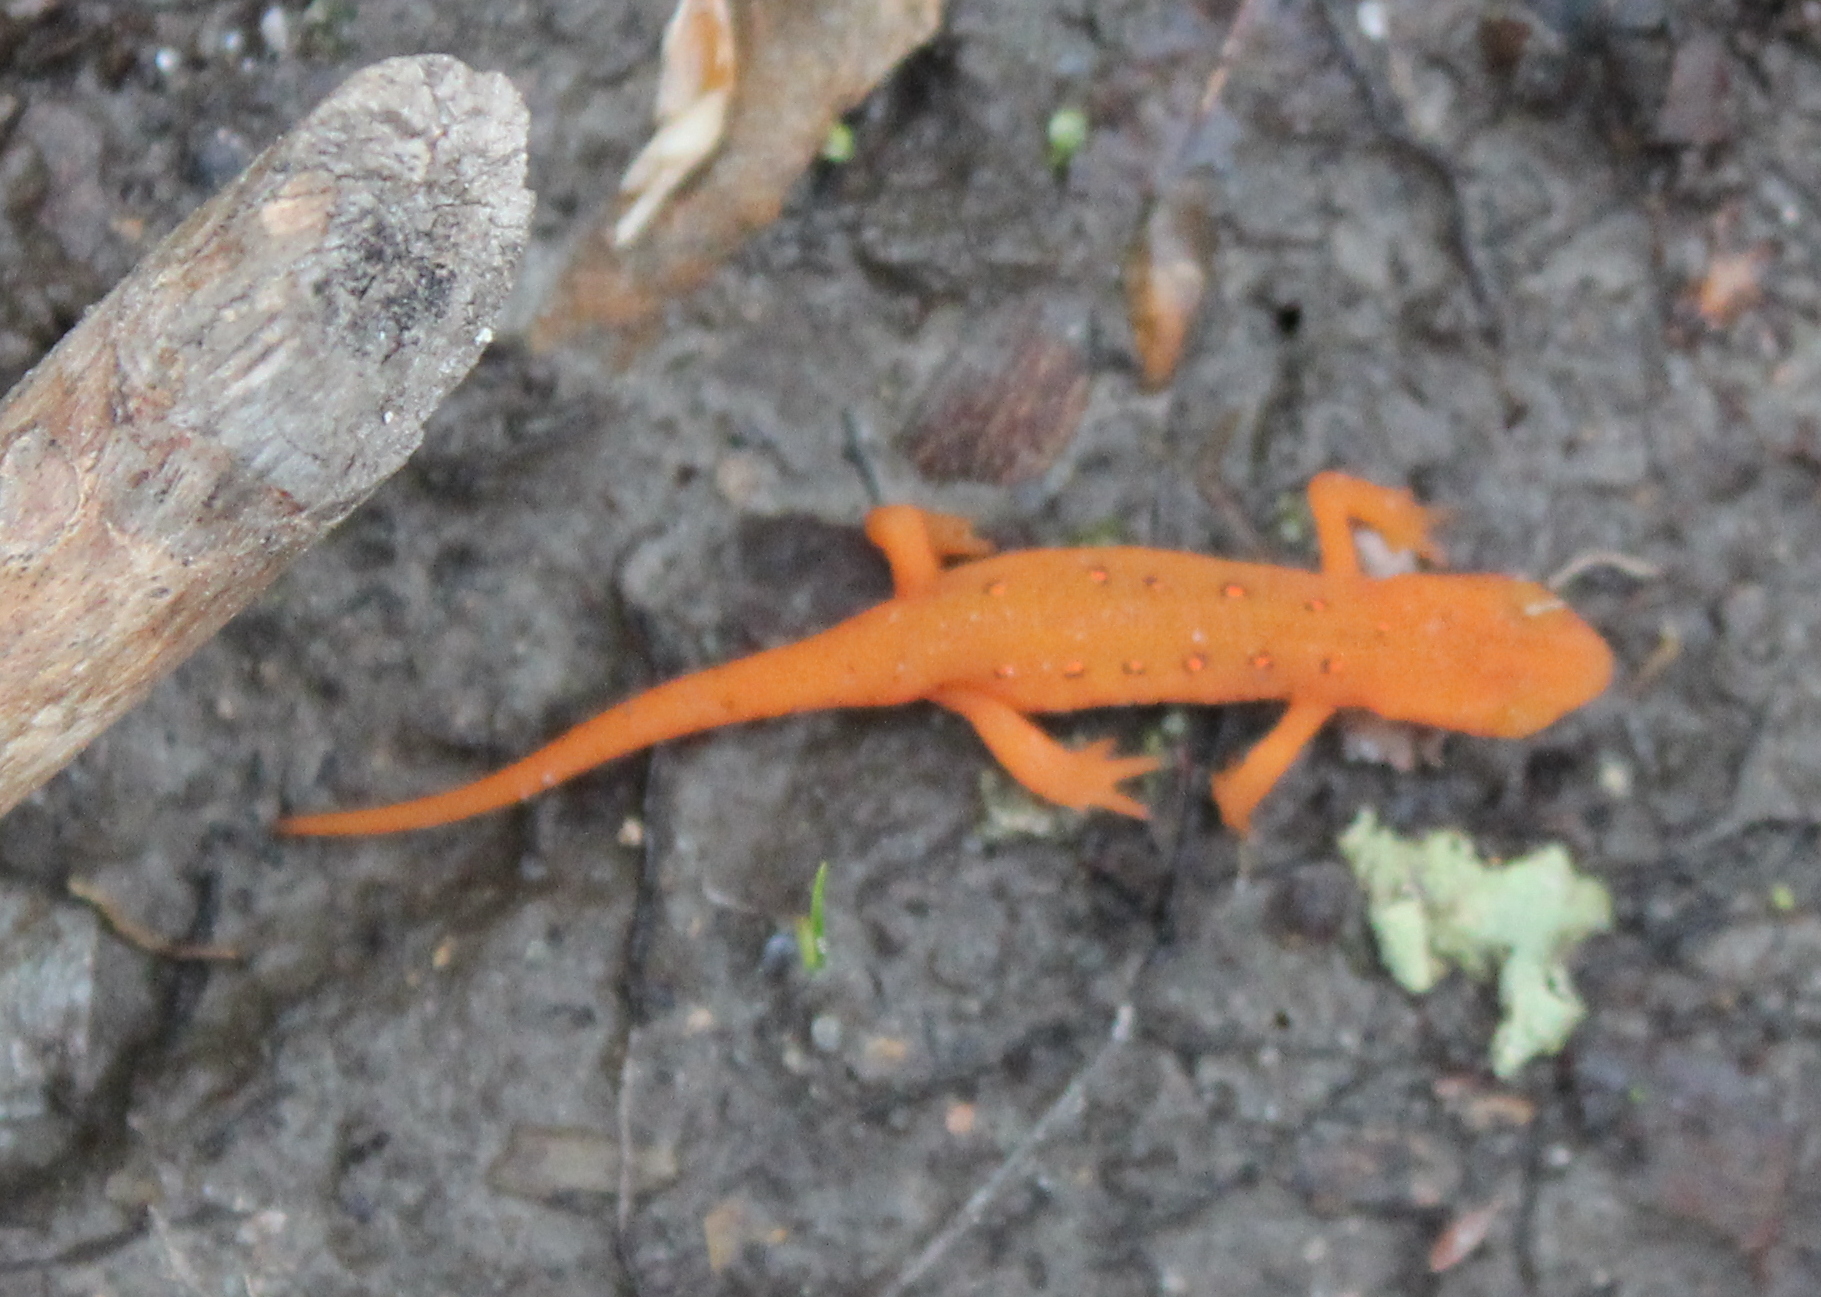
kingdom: Animalia
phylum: Chordata
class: Amphibia
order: Caudata
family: Salamandridae
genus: Notophthalmus
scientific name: Notophthalmus viridescens
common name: Eastern newt
